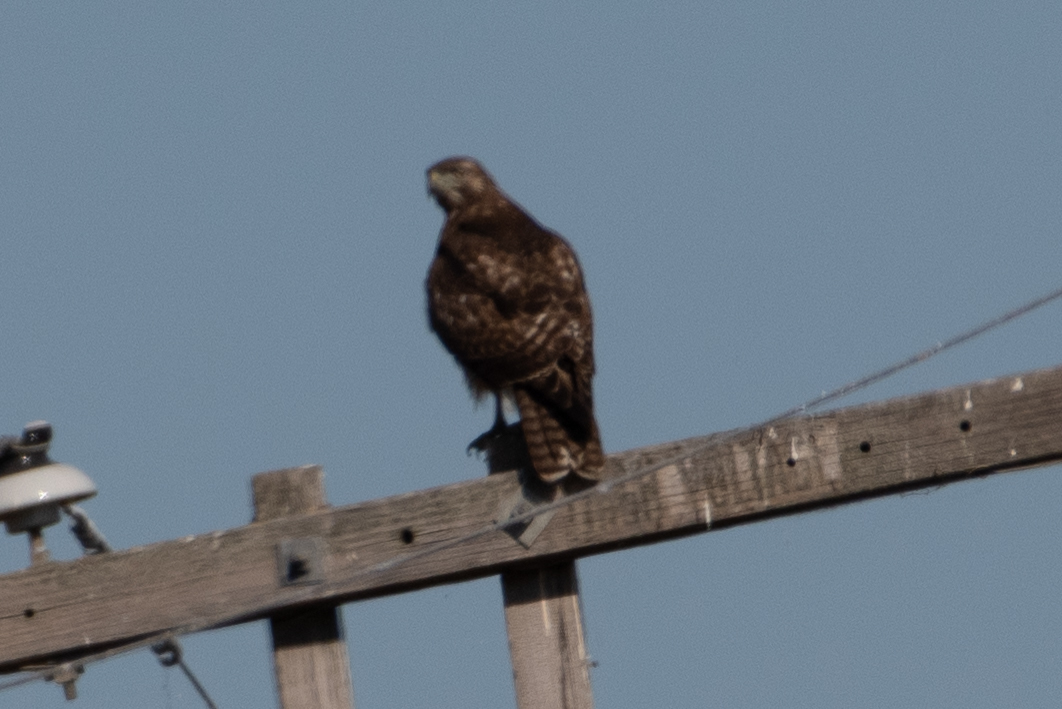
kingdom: Animalia
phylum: Chordata
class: Aves
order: Accipitriformes
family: Accipitridae
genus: Buteo
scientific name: Buteo jamaicensis
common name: Red-tailed hawk
